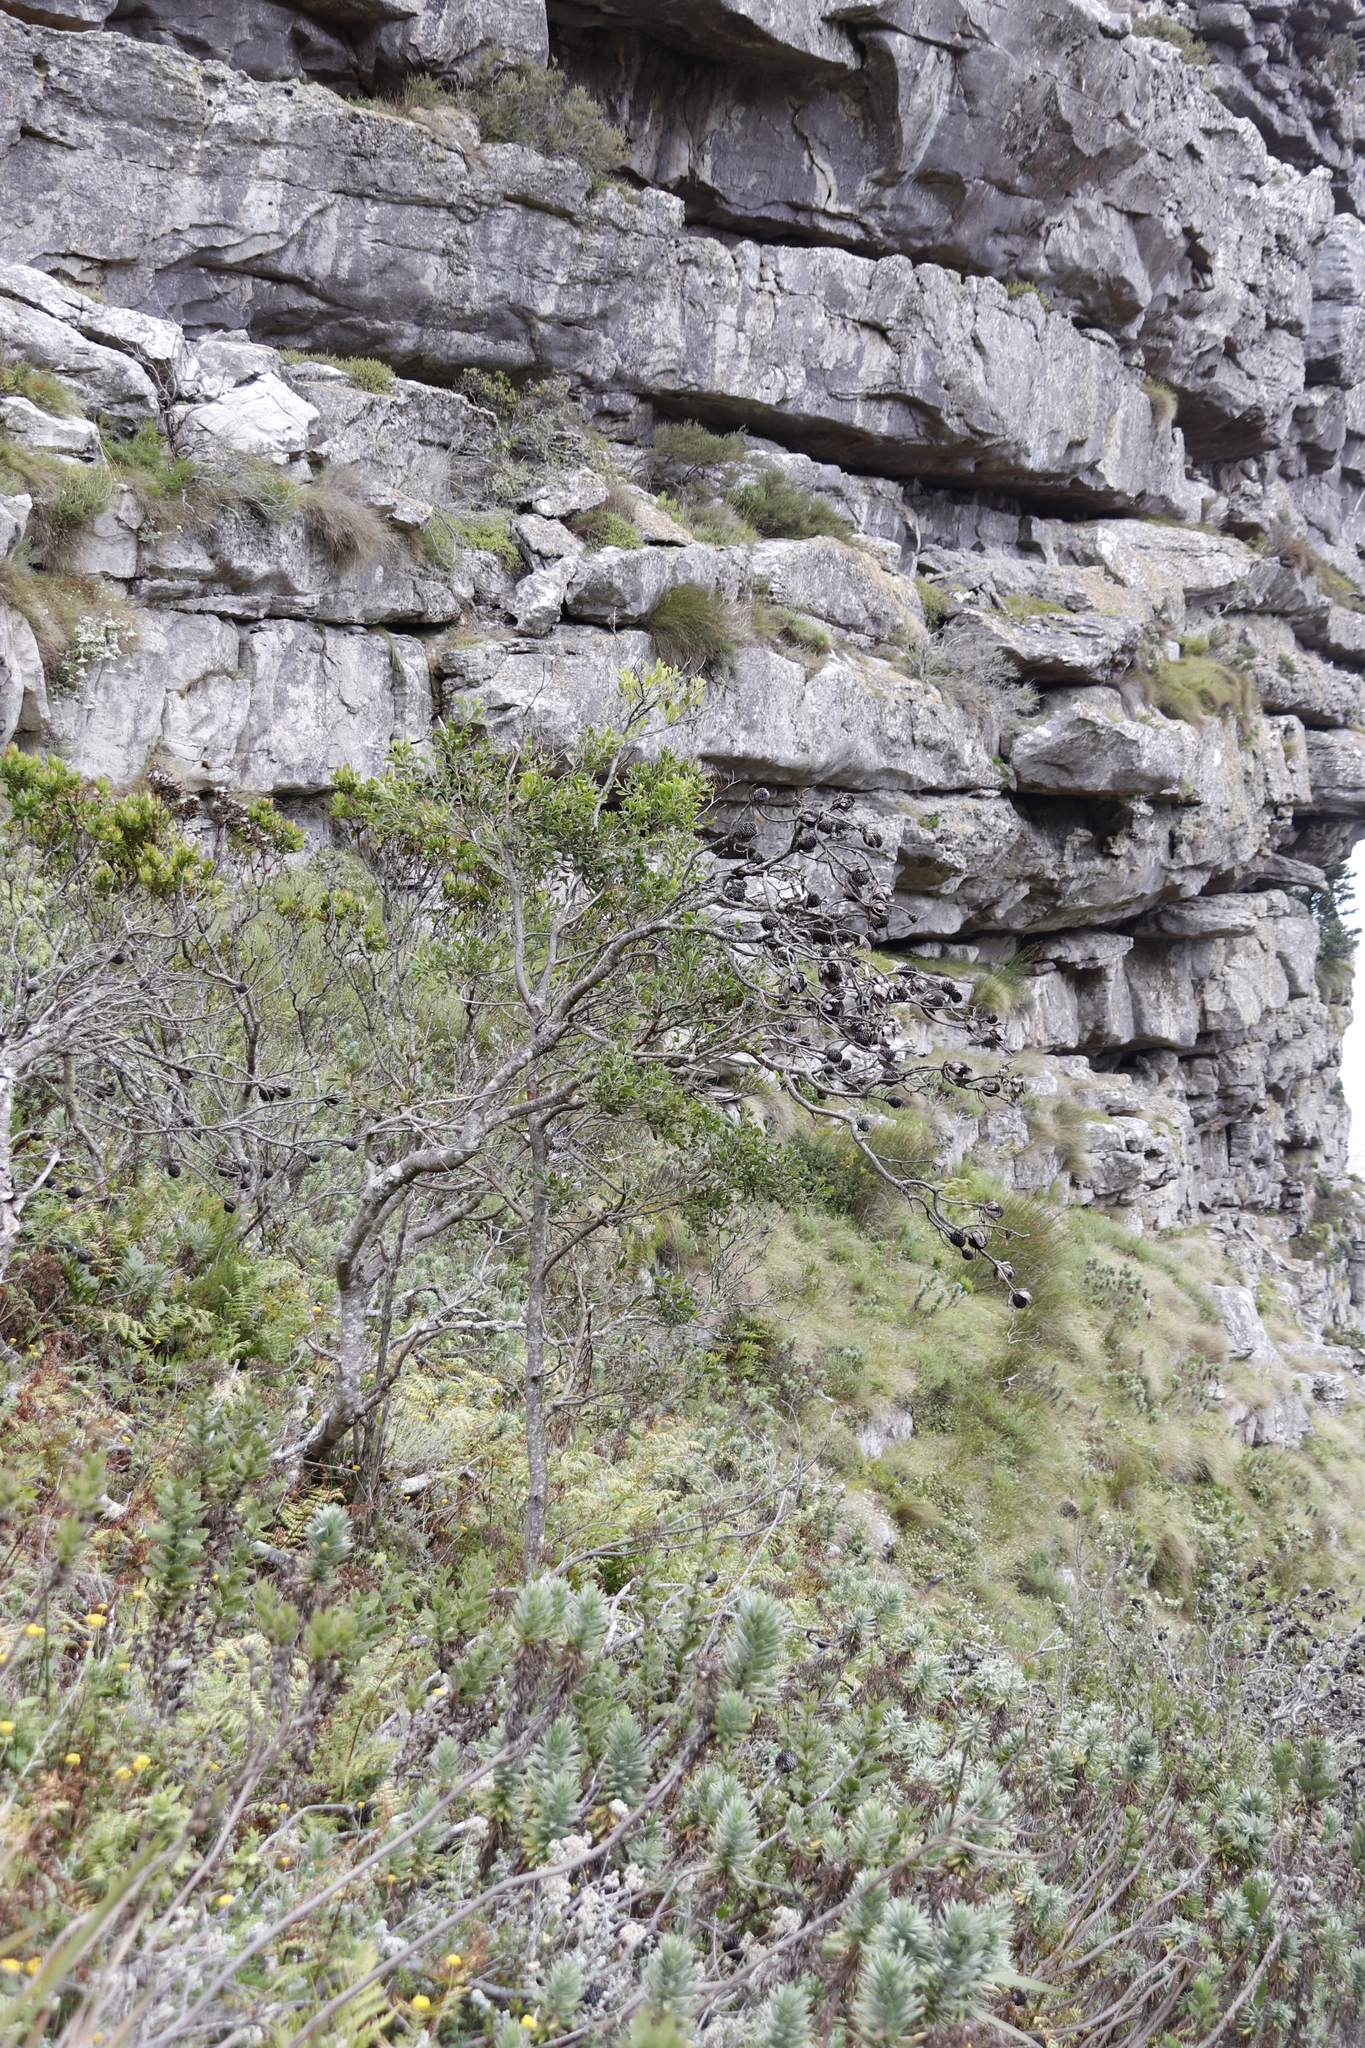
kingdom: Plantae
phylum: Tracheophyta
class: Magnoliopsida
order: Fabales
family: Fabaceae
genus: Acacia
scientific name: Acacia melanoxylon
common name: Blackwood
